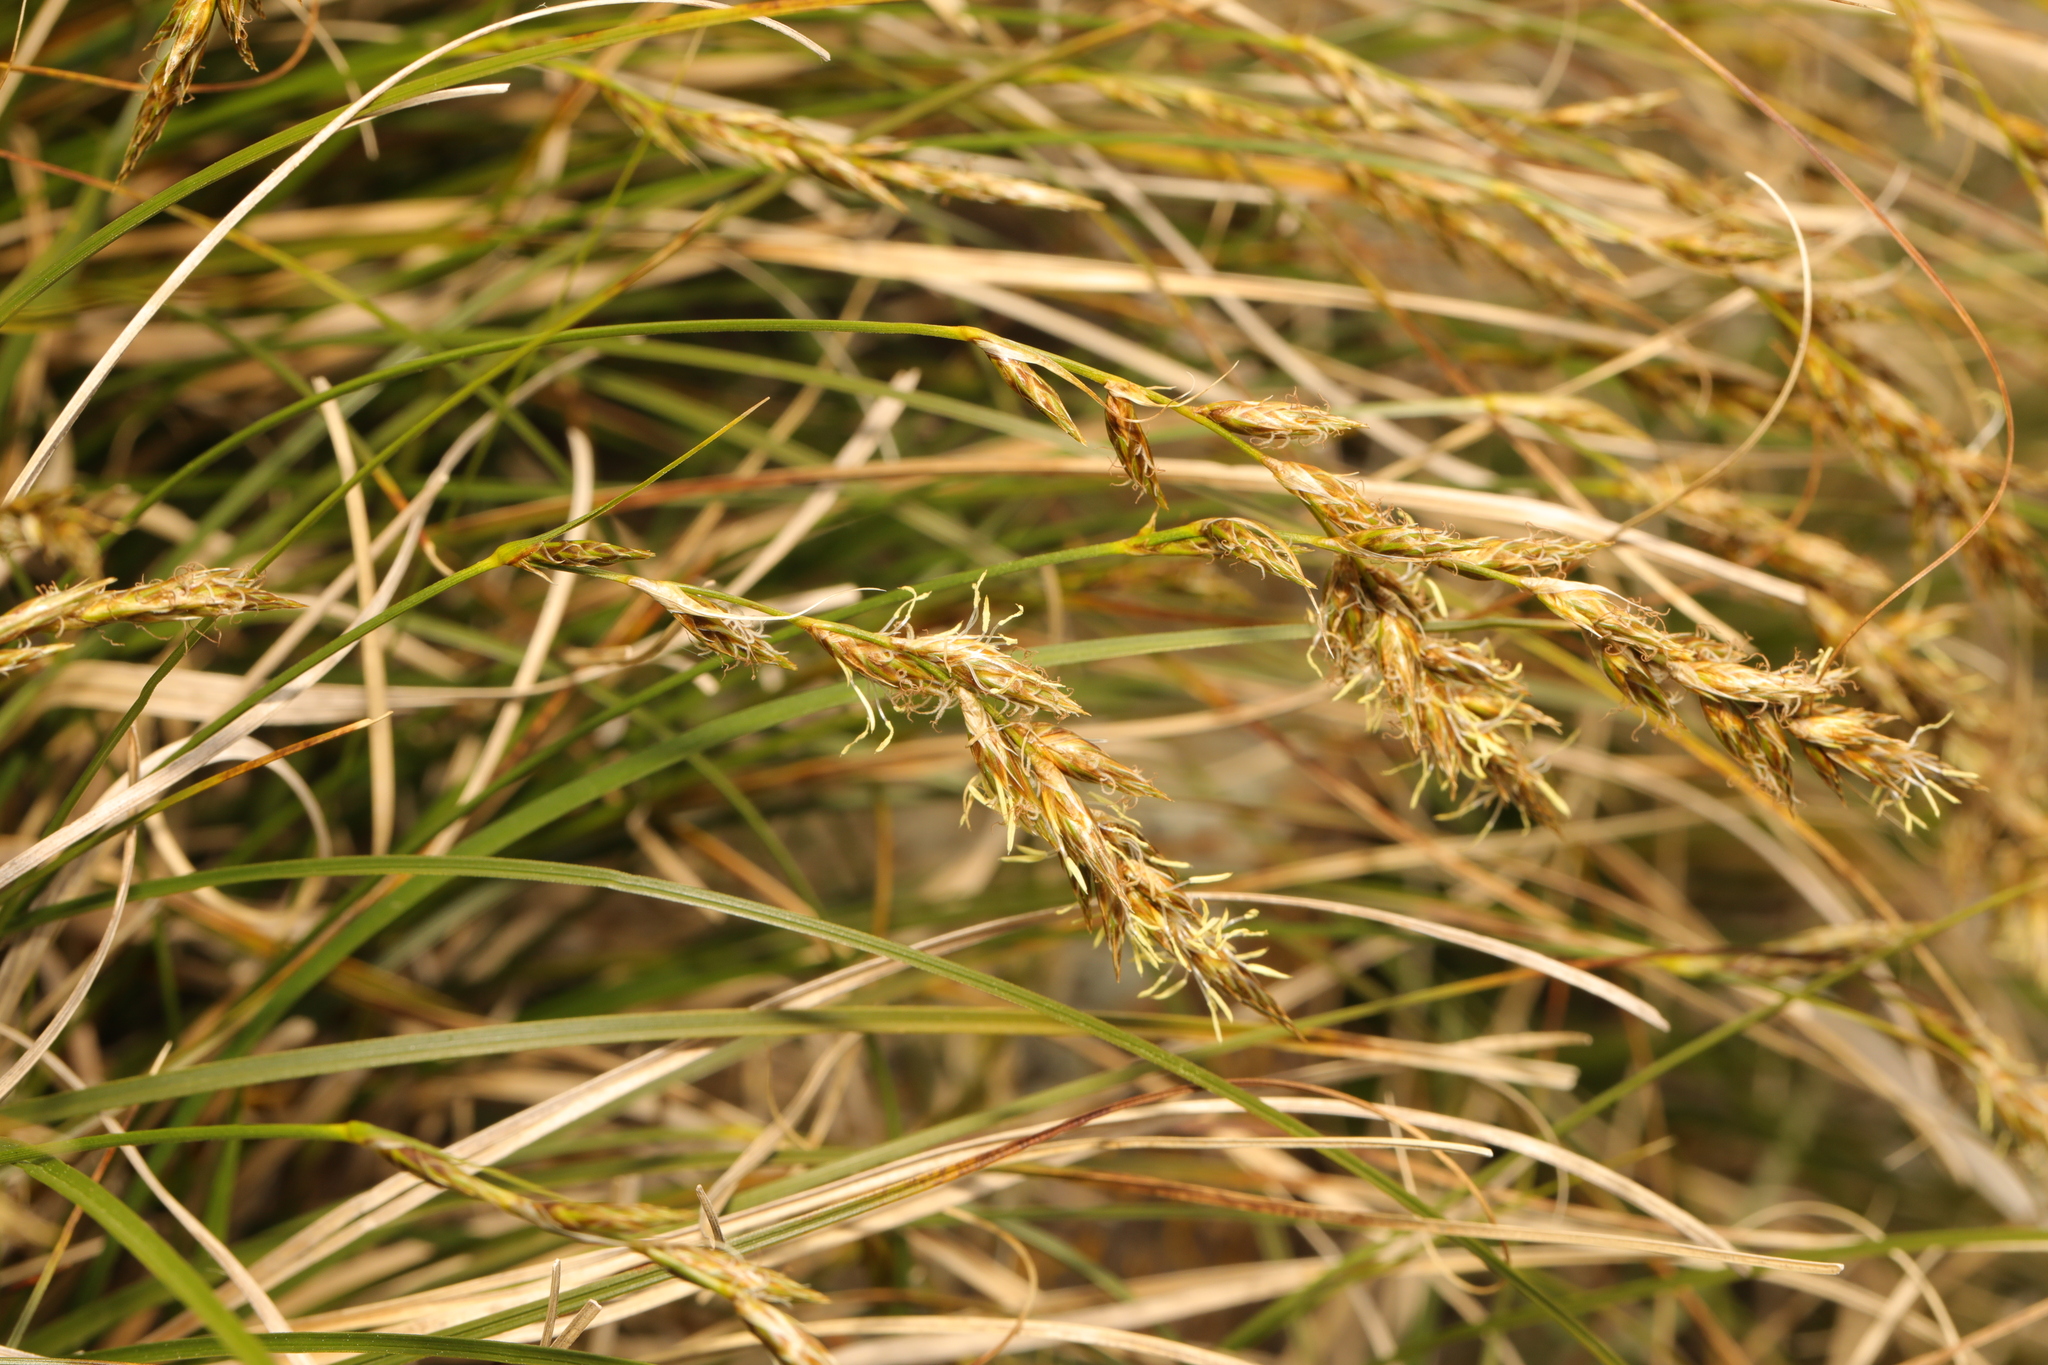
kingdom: Plantae
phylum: Tracheophyta
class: Liliopsida
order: Poales
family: Cyperaceae
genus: Carex
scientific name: Carex arenaria
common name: Sand sedge
